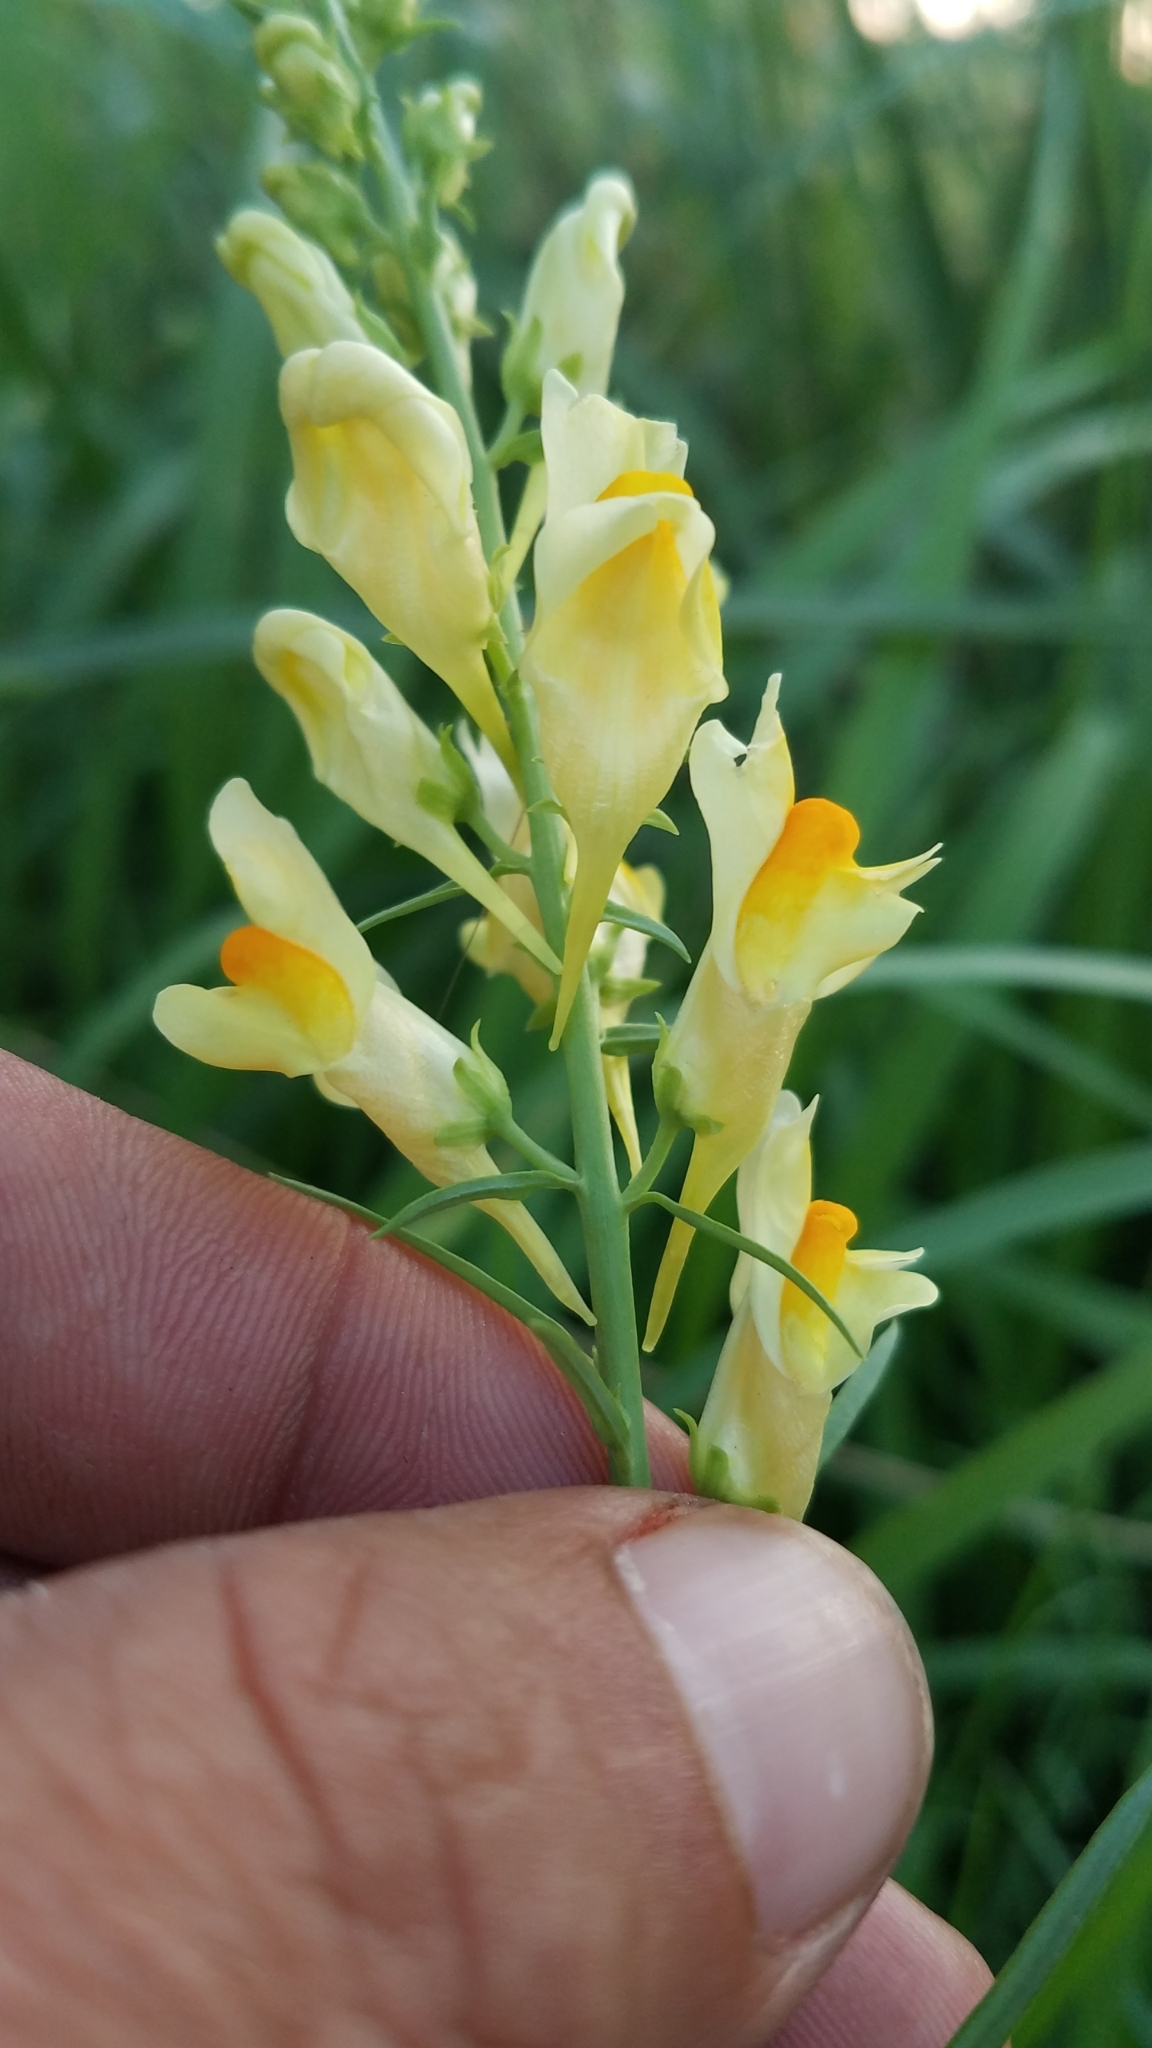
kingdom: Plantae
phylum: Tracheophyta
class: Magnoliopsida
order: Lamiales
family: Plantaginaceae
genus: Linaria
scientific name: Linaria vulgaris
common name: Butter and eggs
